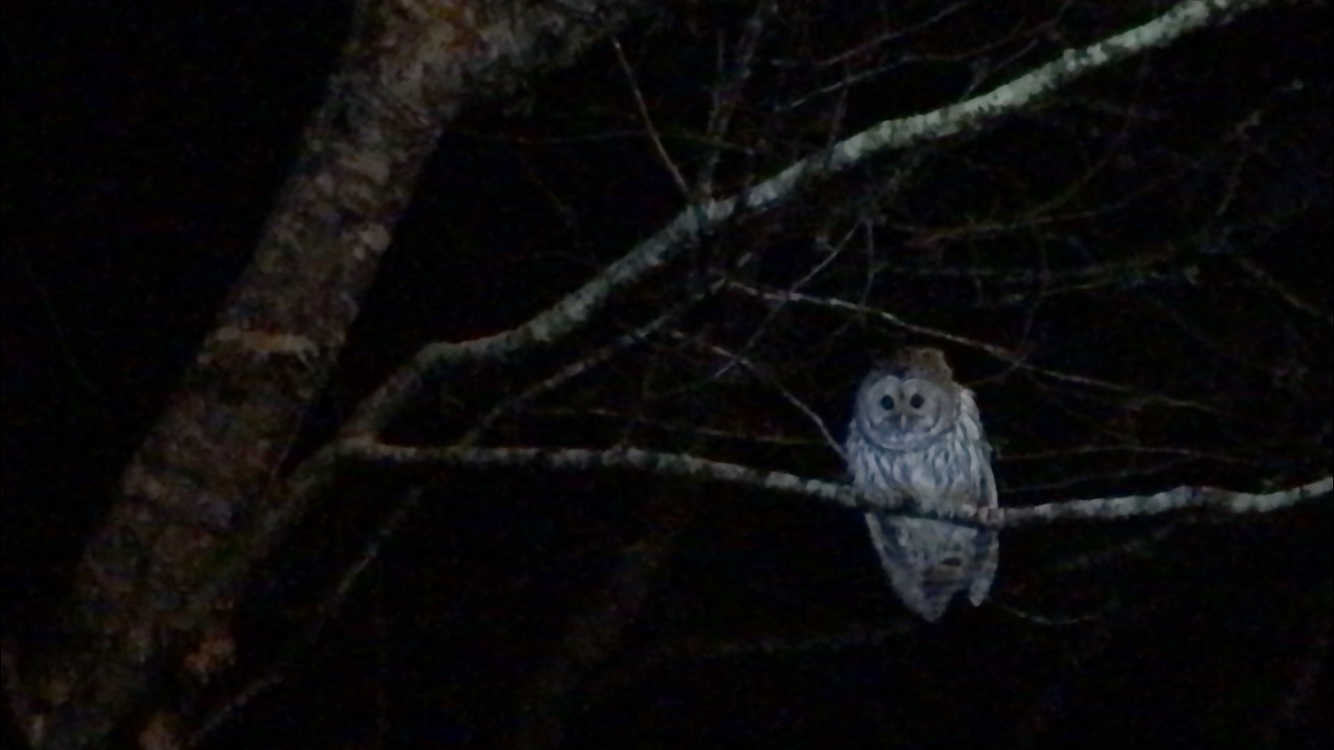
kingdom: Animalia
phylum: Chordata
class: Aves
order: Strigiformes
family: Strigidae
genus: Strix
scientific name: Strix varia
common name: Barred owl
